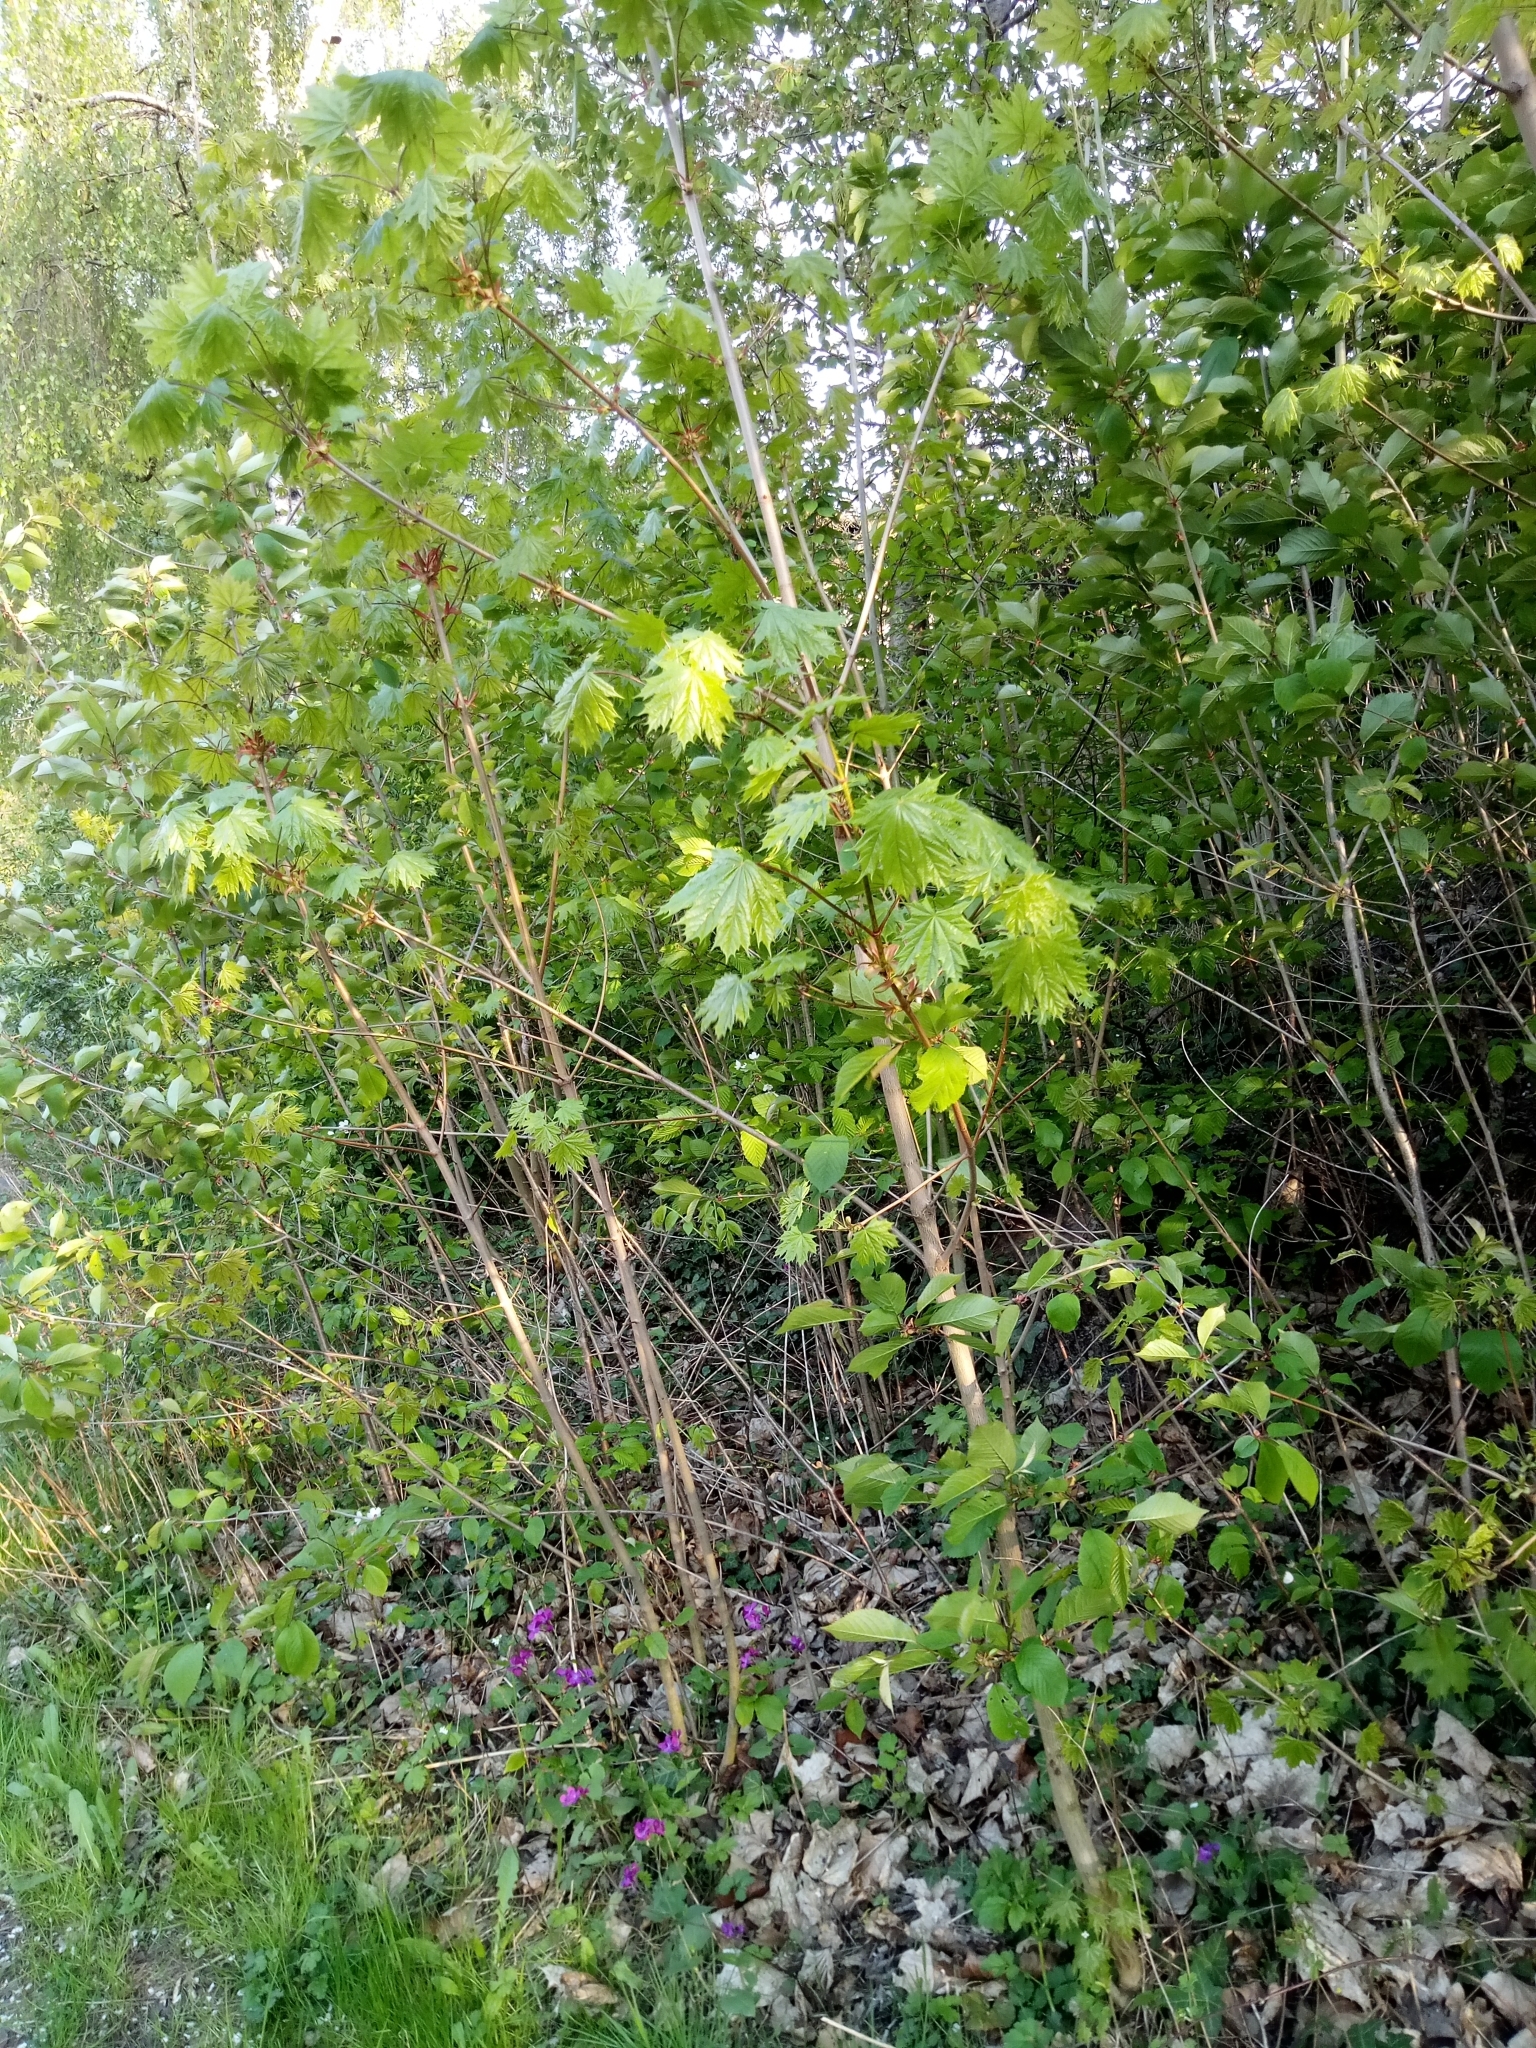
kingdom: Plantae
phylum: Tracheophyta
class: Magnoliopsida
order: Sapindales
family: Sapindaceae
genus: Acer
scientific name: Acer platanoides
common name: Norway maple
